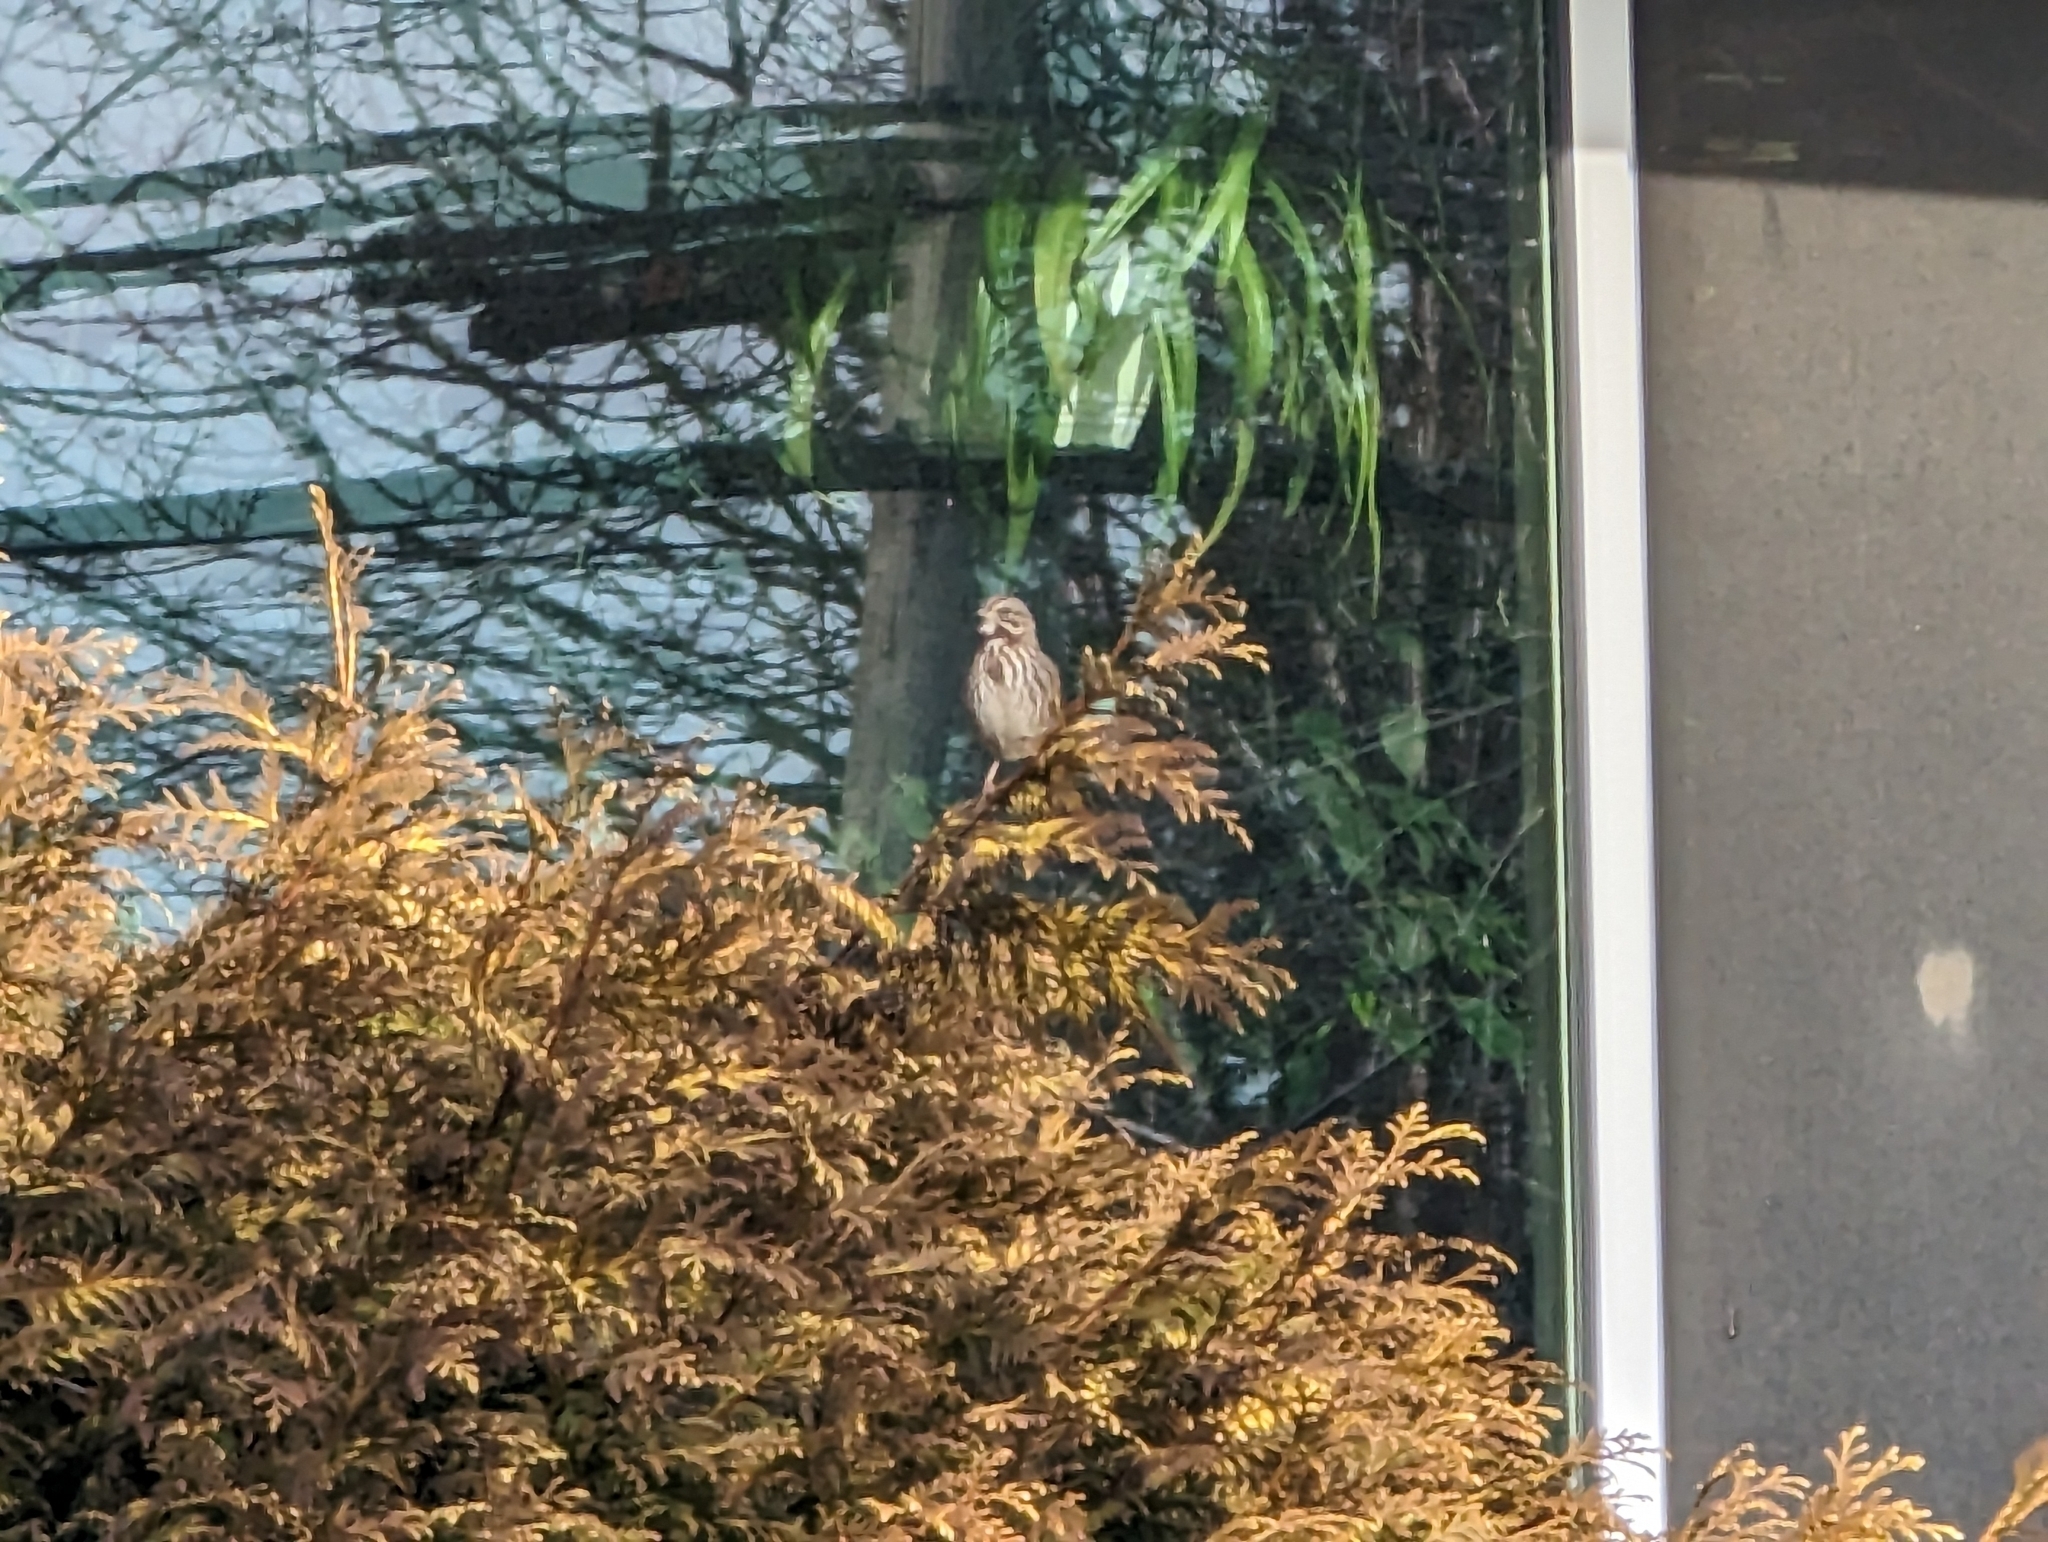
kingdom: Animalia
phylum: Chordata
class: Aves
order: Passeriformes
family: Passerellidae
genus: Melospiza
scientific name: Melospiza melodia
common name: Song sparrow
